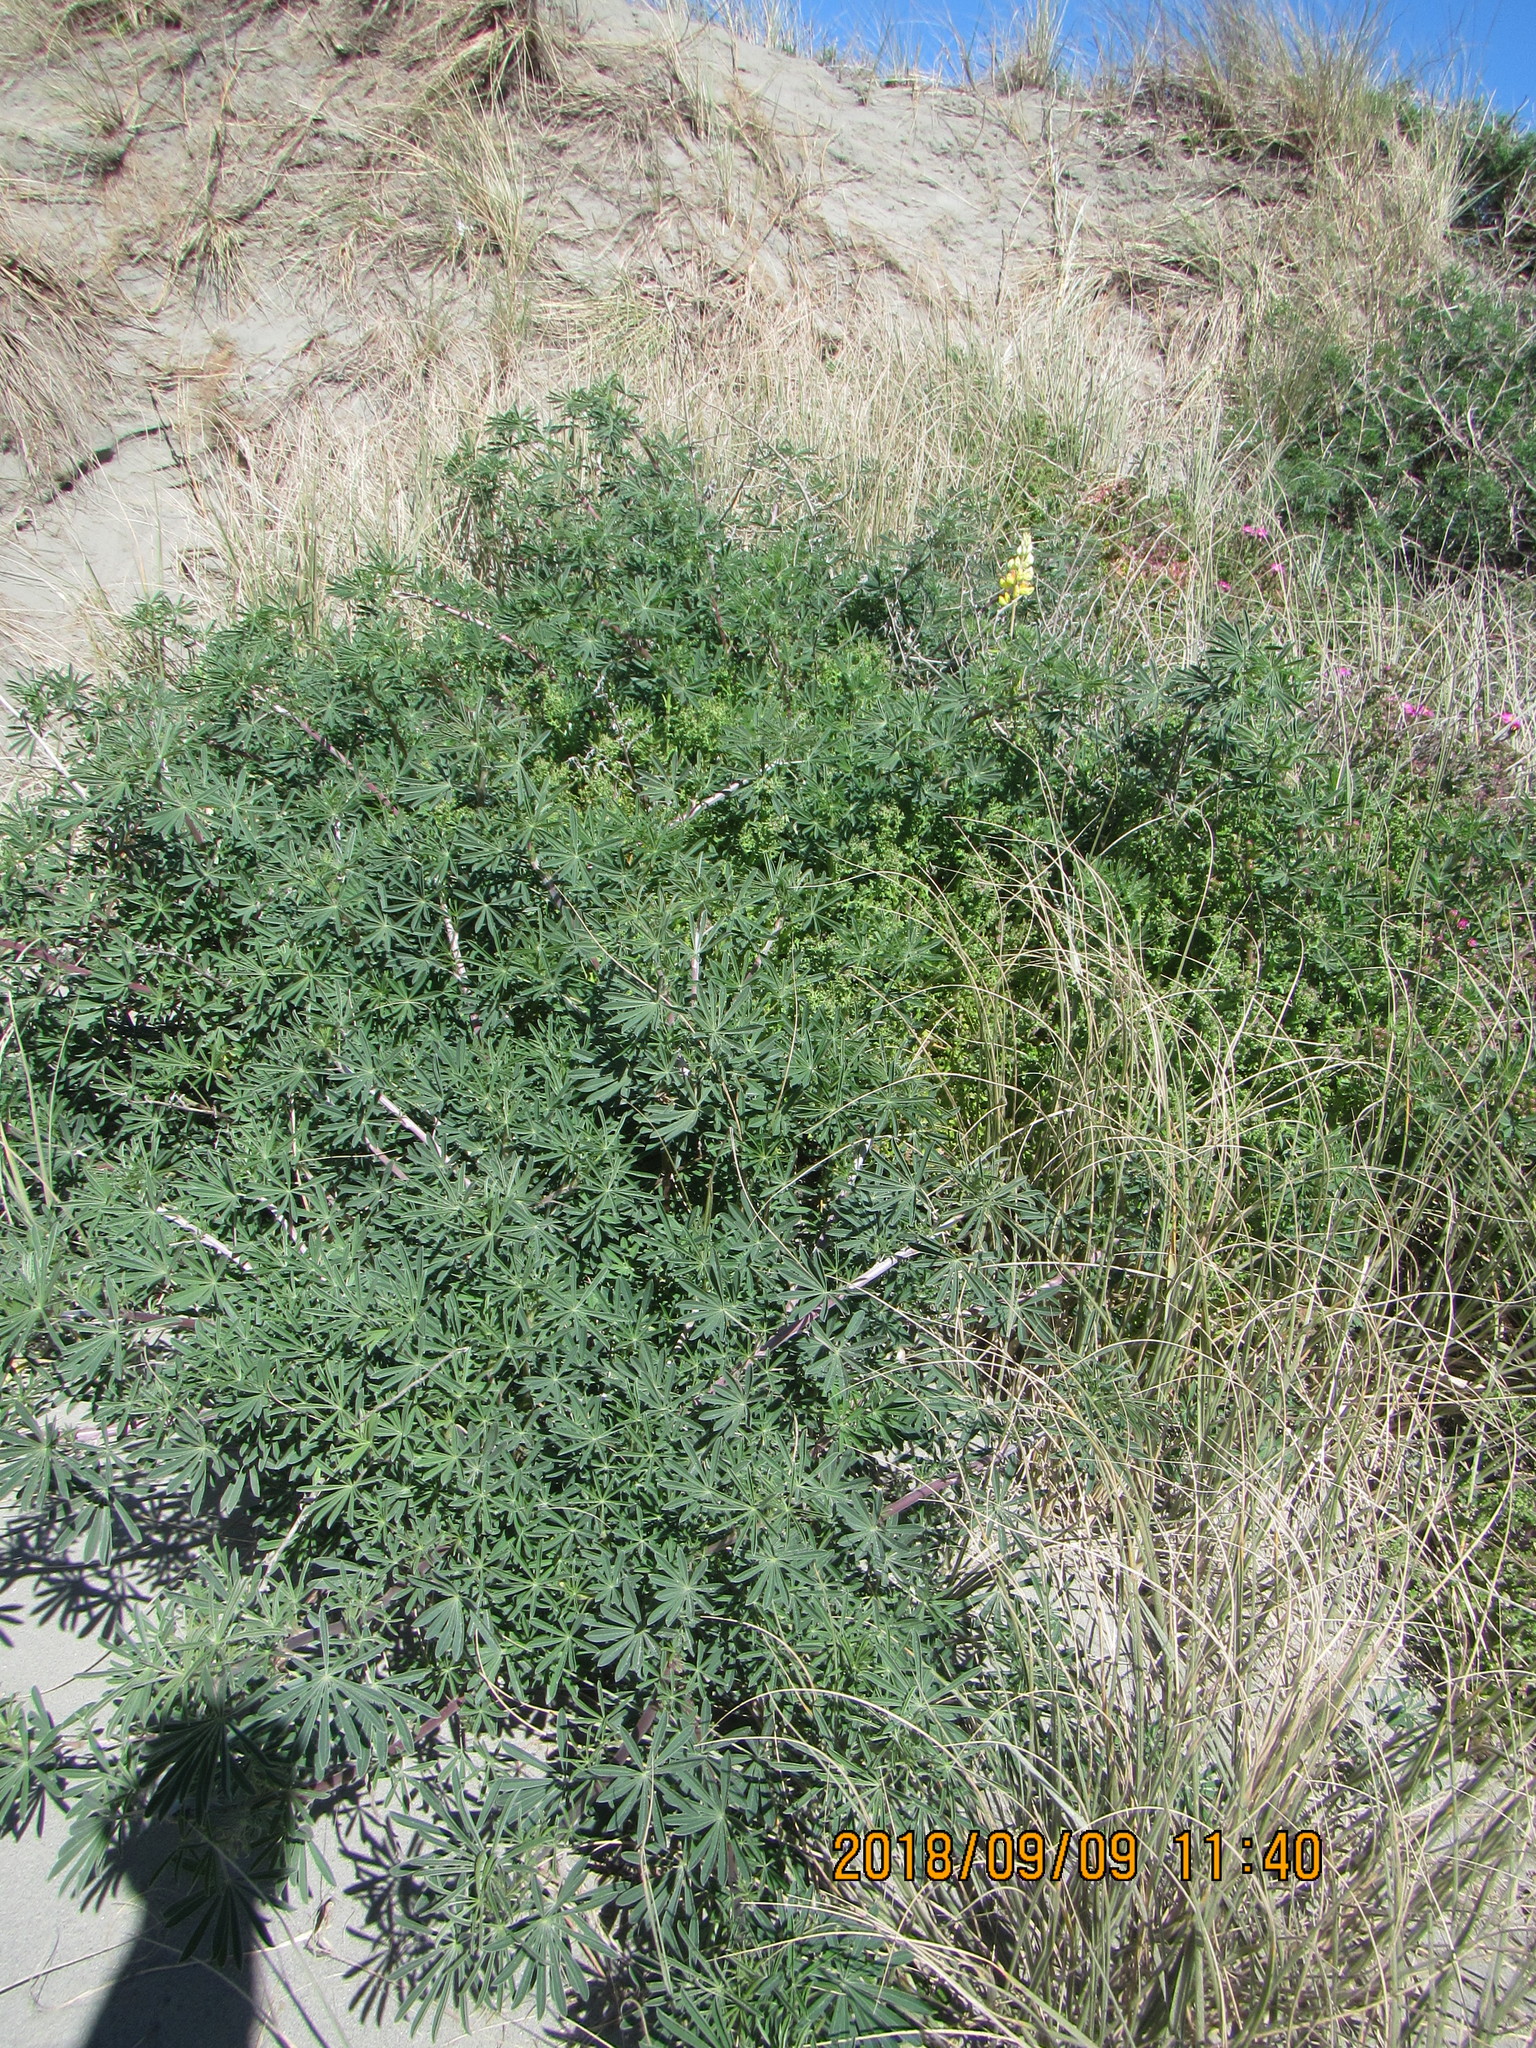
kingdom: Plantae
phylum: Tracheophyta
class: Magnoliopsida
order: Fabales
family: Fabaceae
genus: Lupinus
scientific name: Lupinus arboreus
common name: Yellow bush lupine
